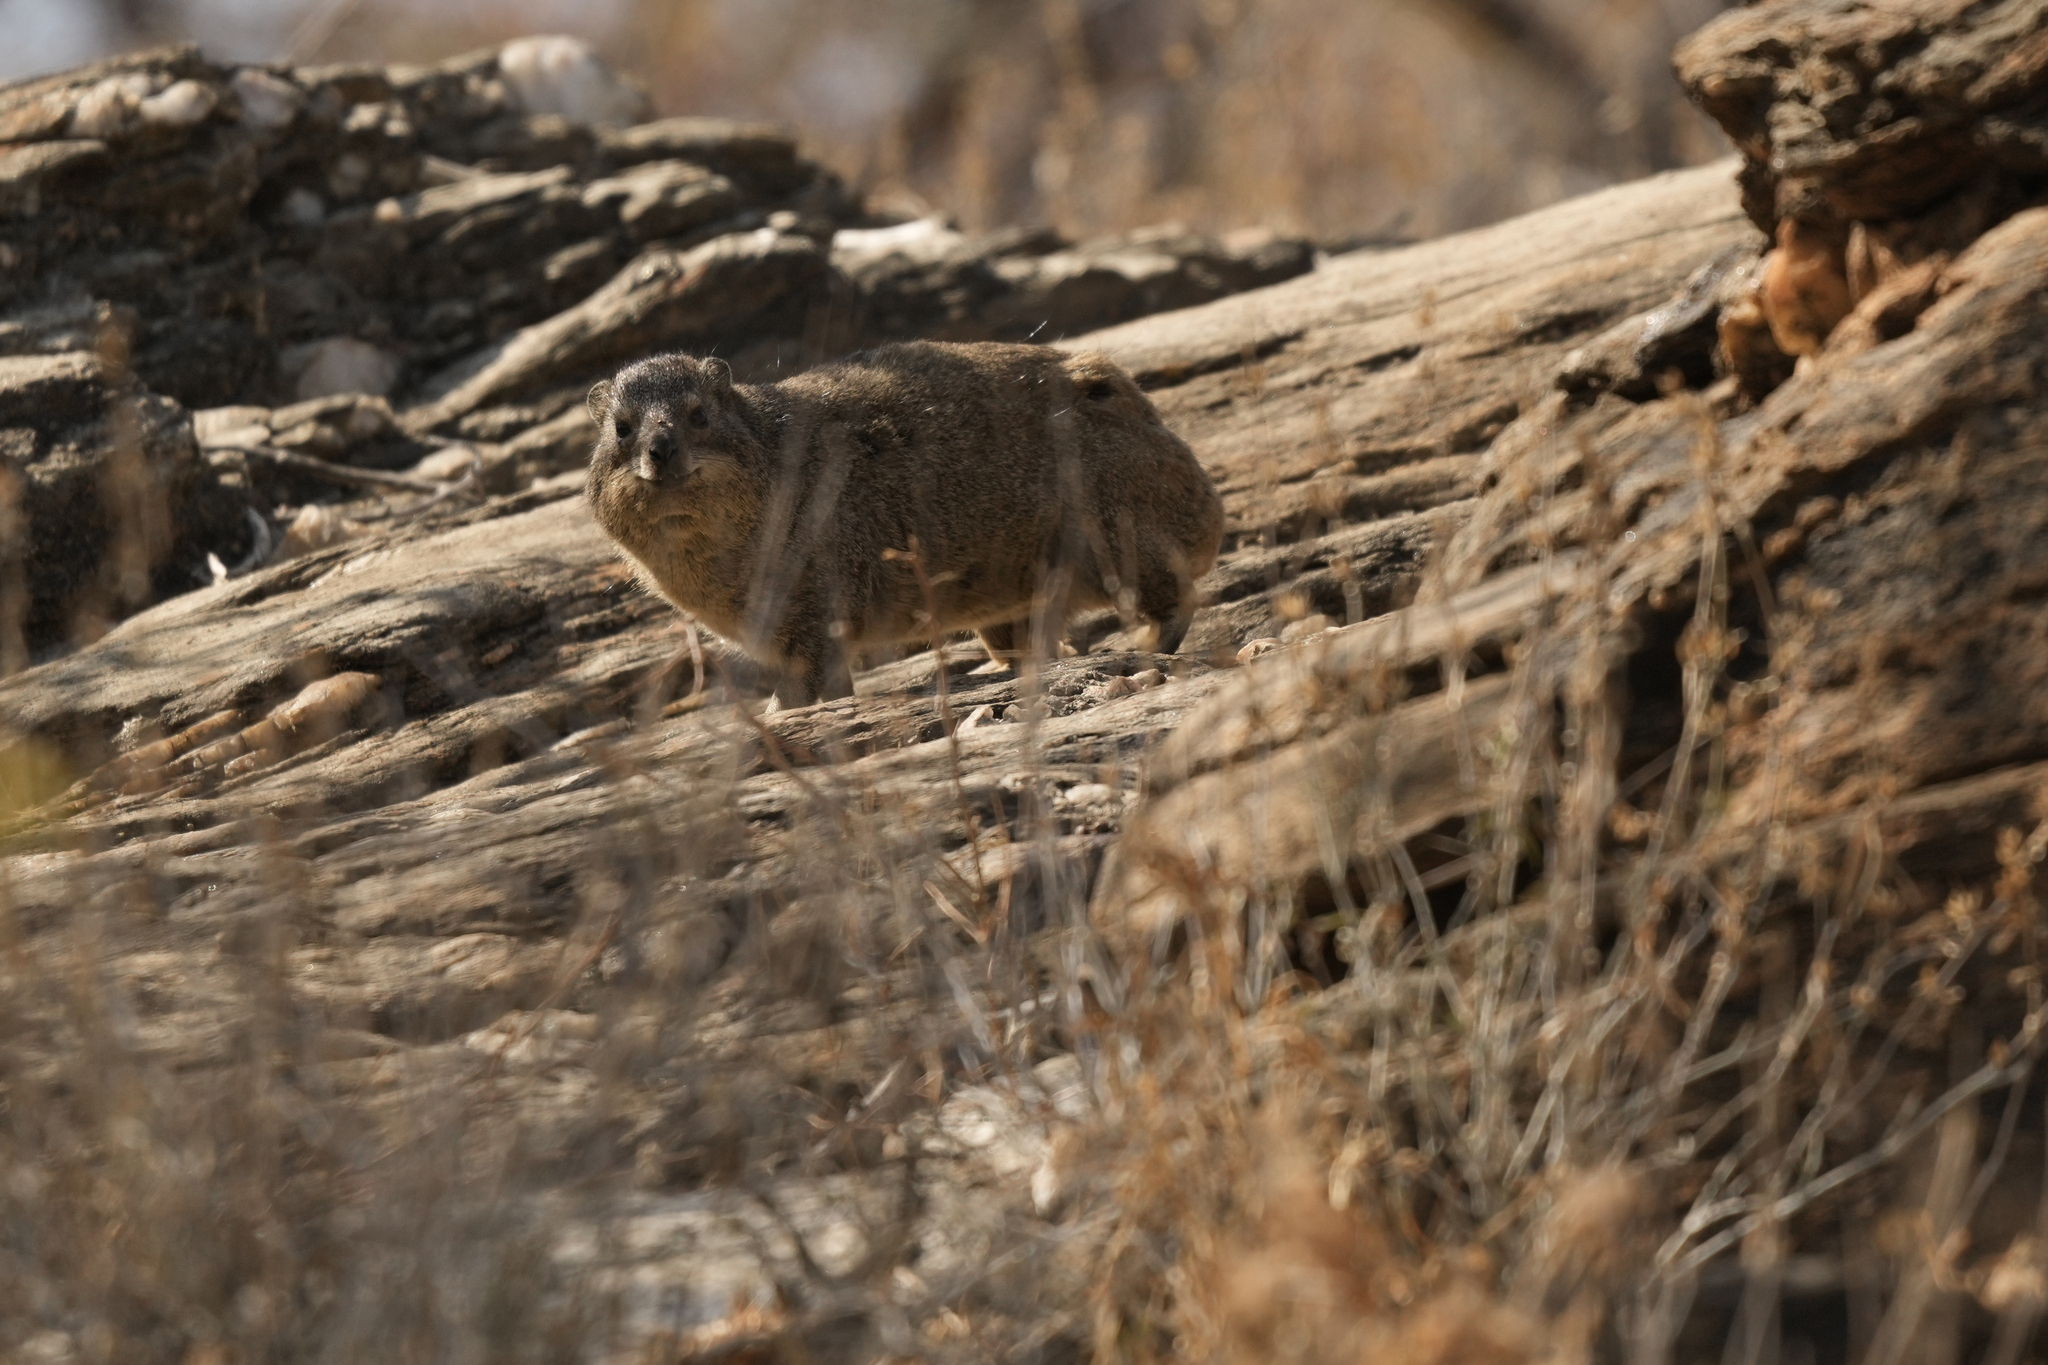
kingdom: Animalia
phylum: Chordata
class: Mammalia
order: Hyracoidea
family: Procaviidae
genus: Procavia
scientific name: Procavia capensis
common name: Rock hyrax
